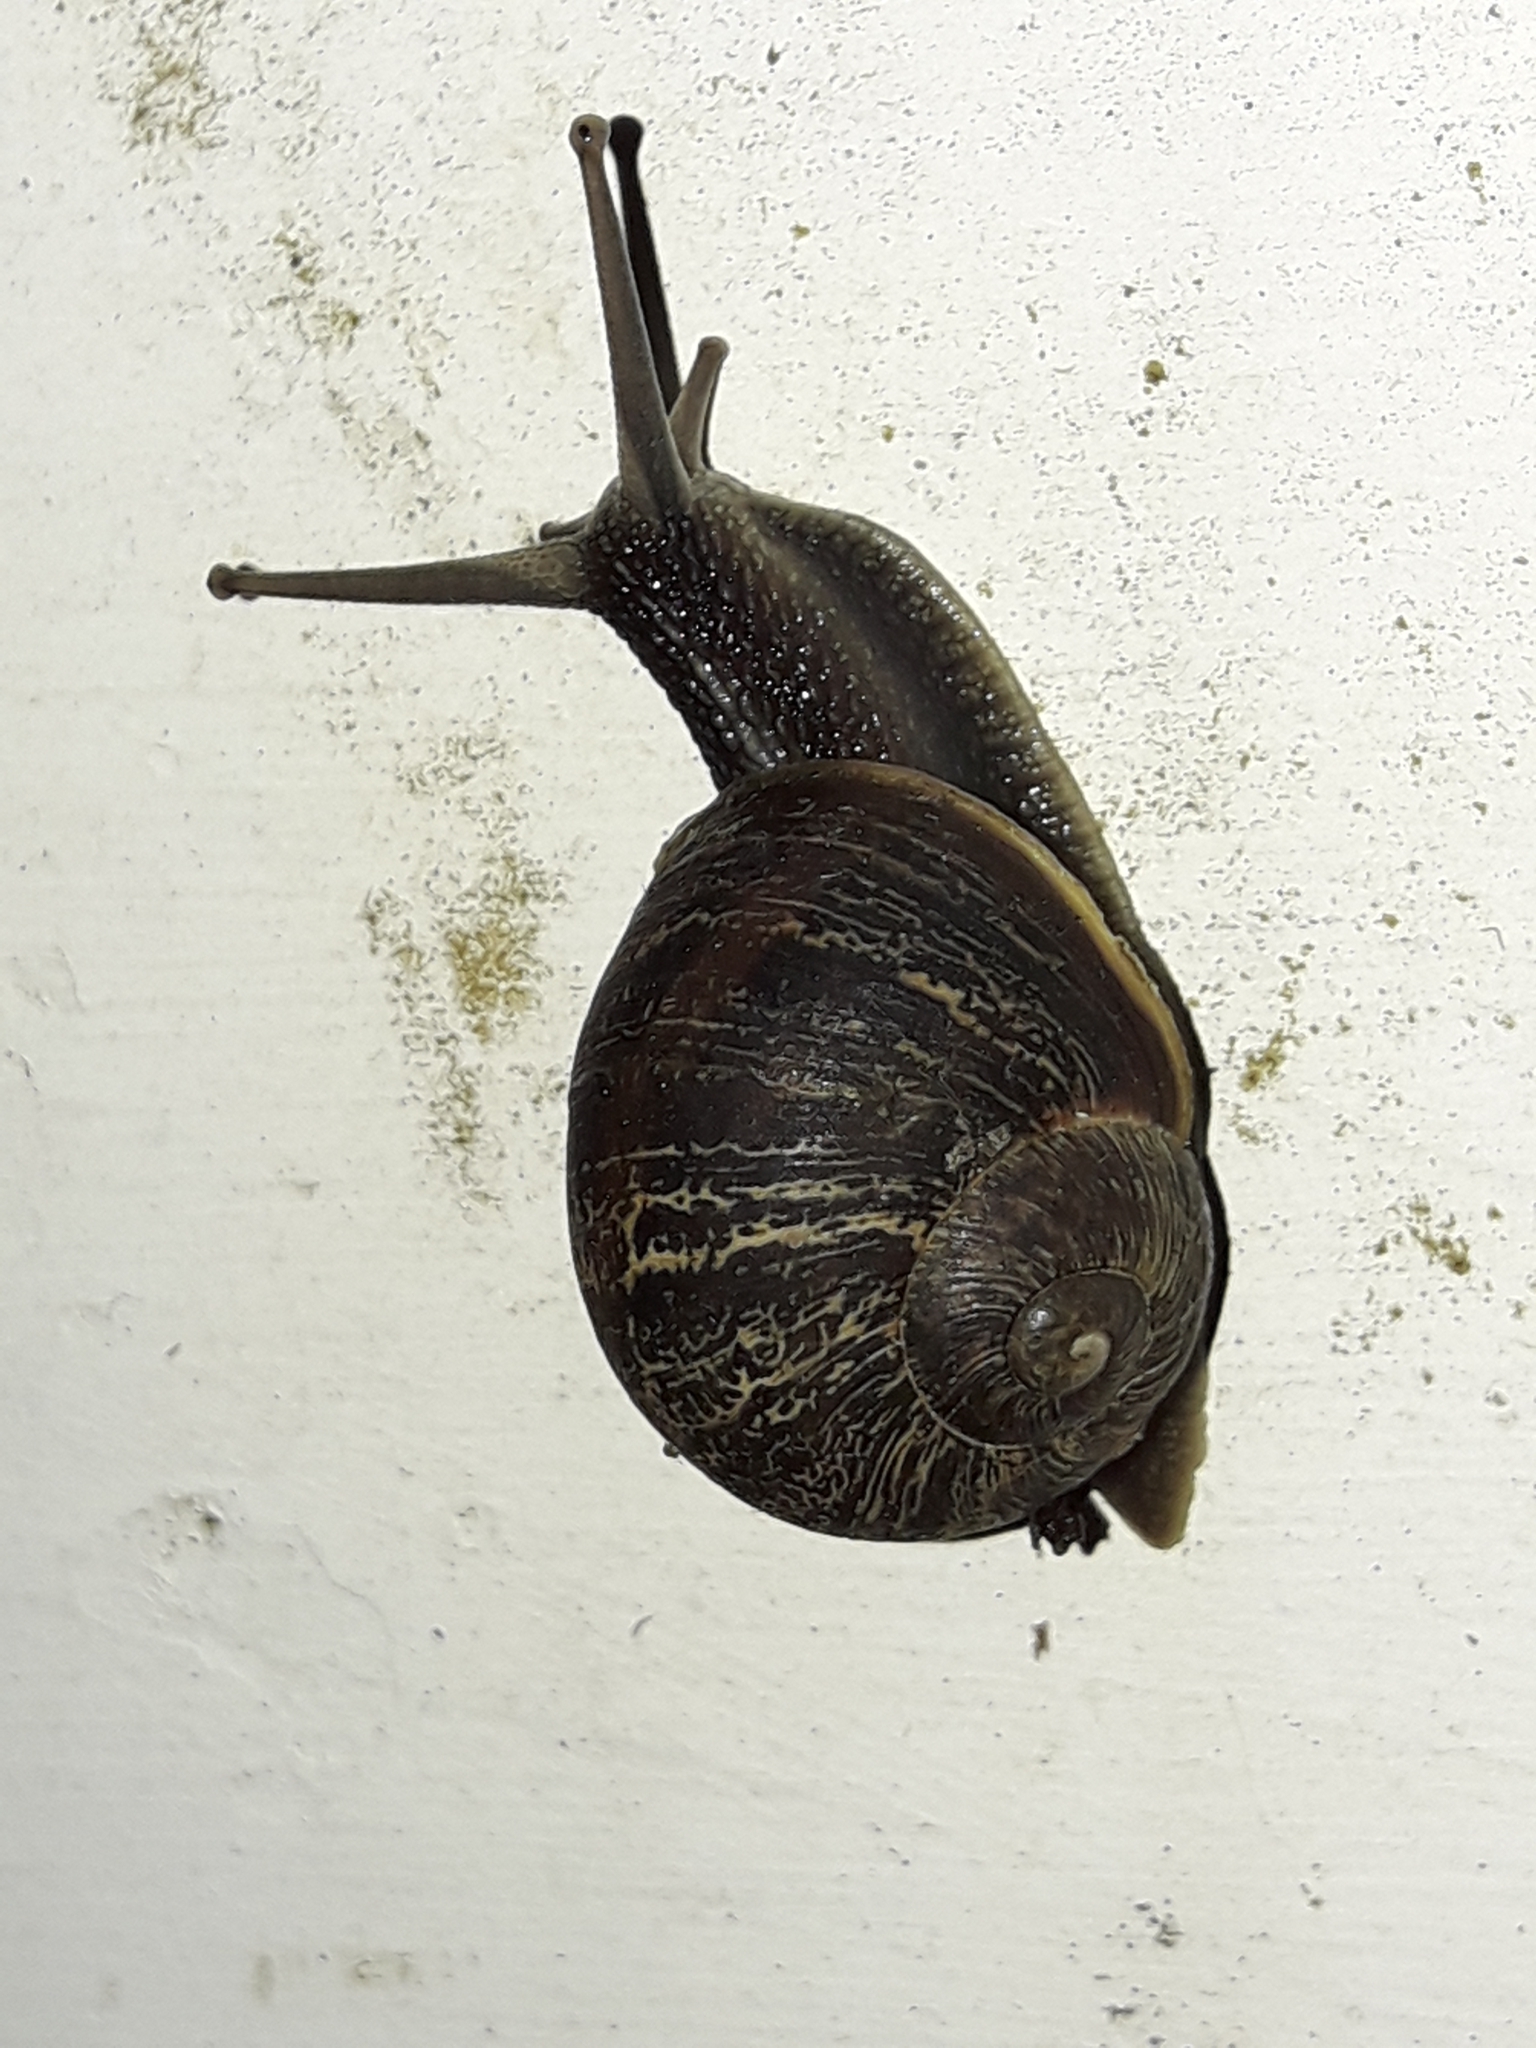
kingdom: Animalia
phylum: Mollusca
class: Gastropoda
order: Stylommatophora
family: Helicidae
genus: Cornu
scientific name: Cornu aspersum
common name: Brown garden snail
